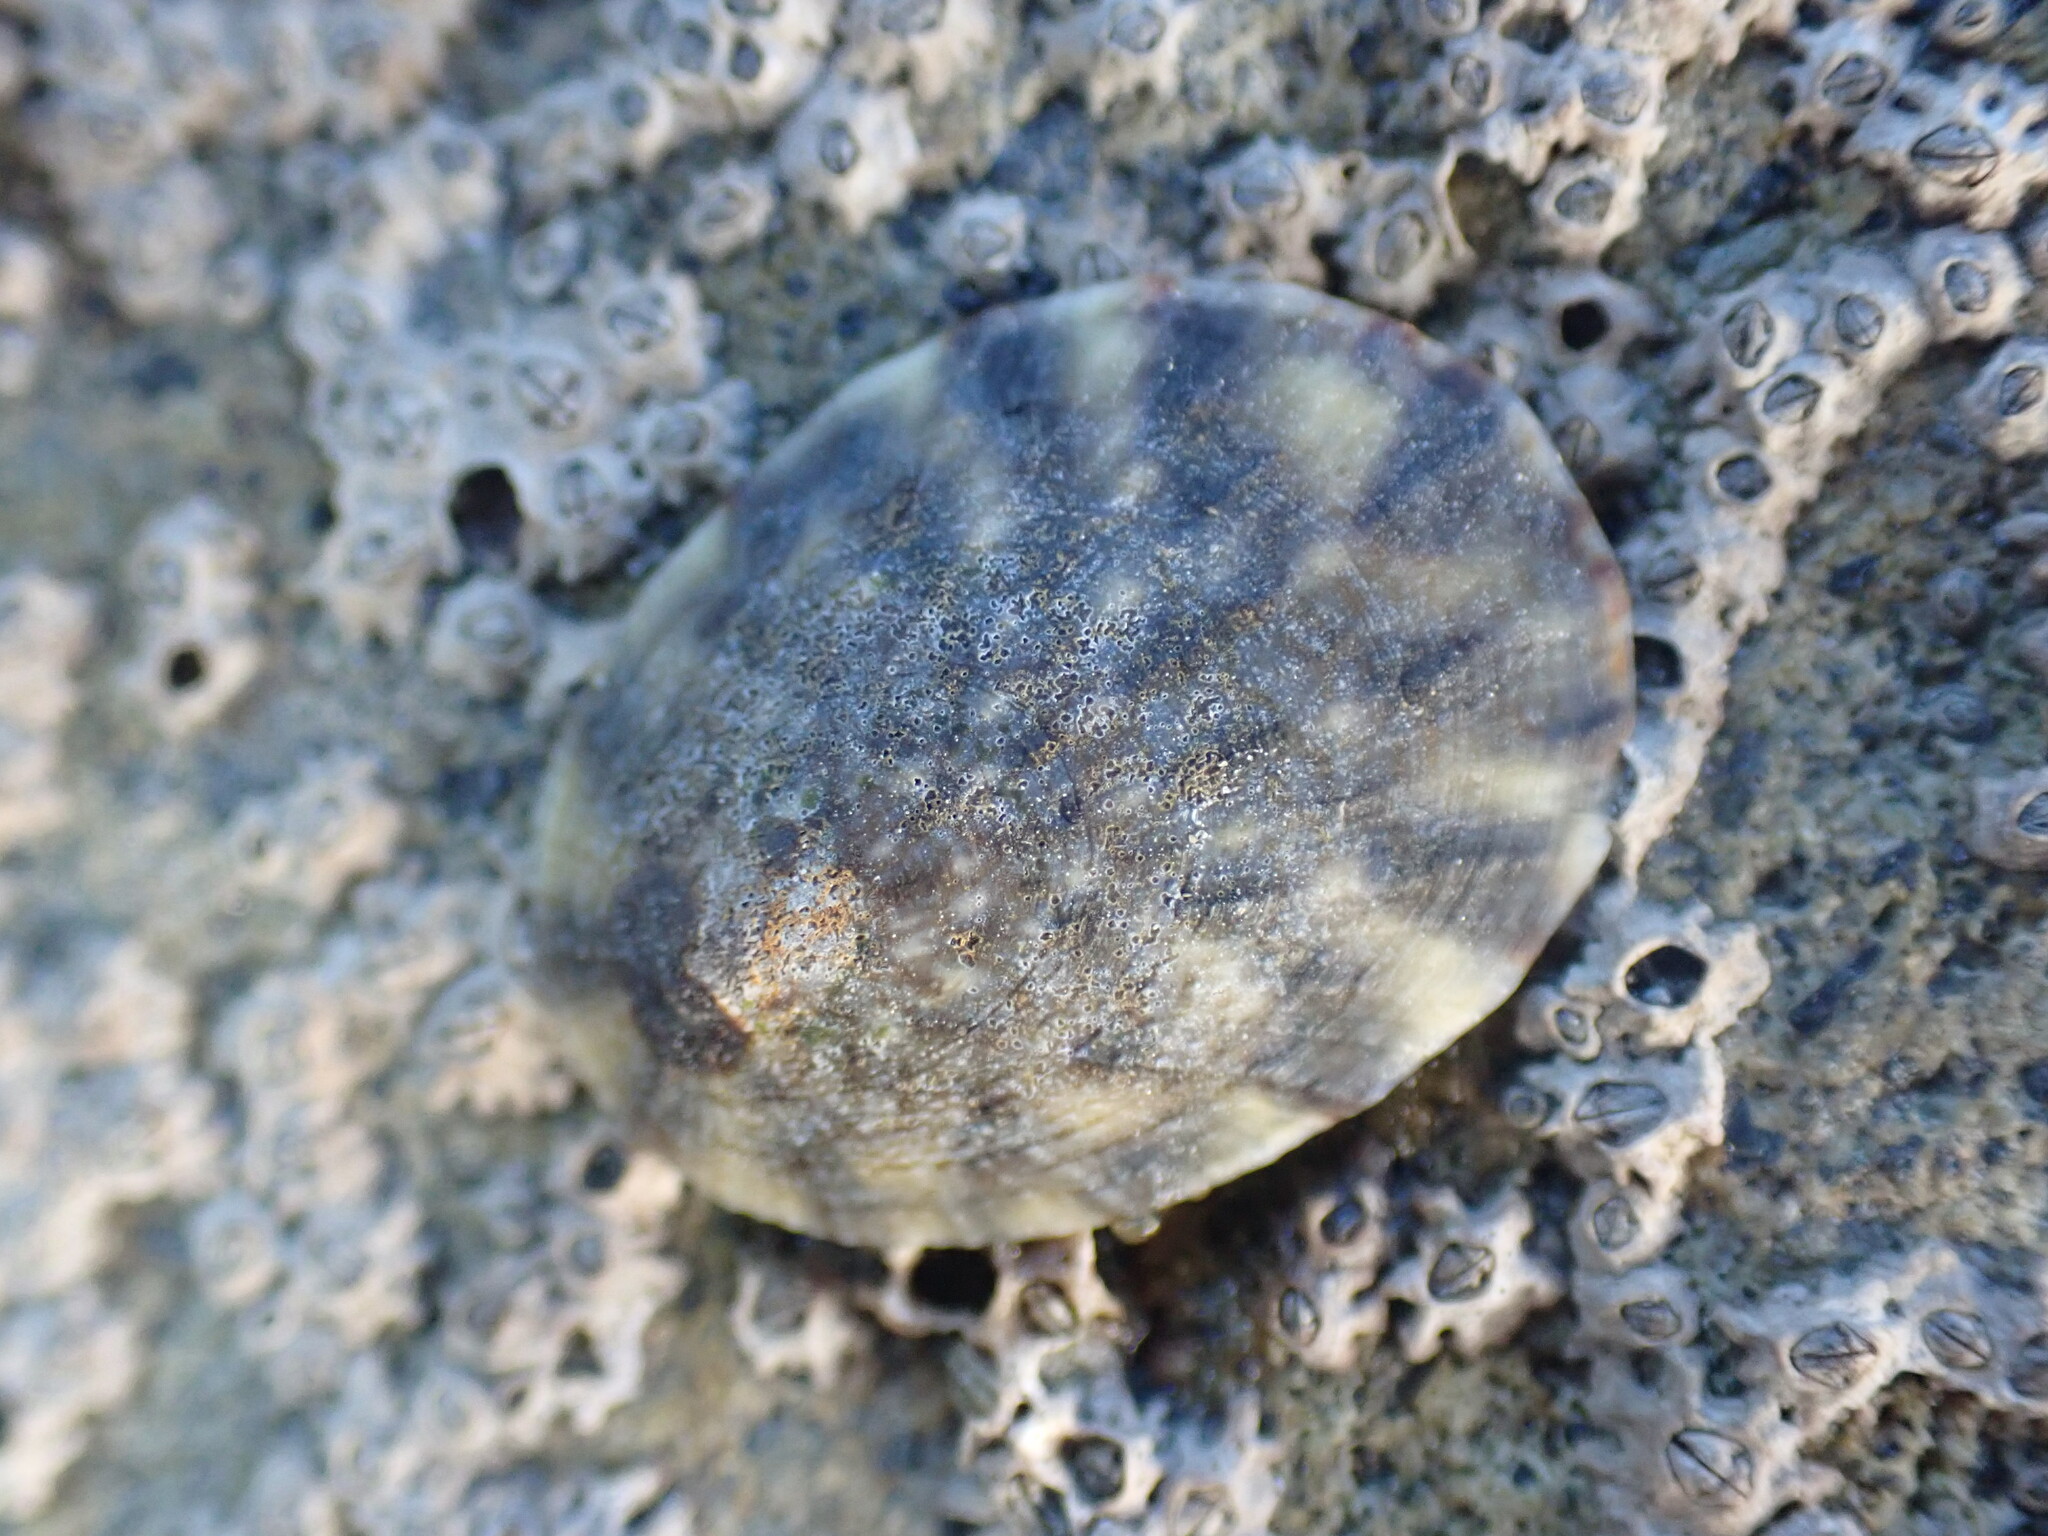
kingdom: Animalia
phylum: Mollusca
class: Gastropoda
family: Nacellidae
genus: Cellana
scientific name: Cellana radians
